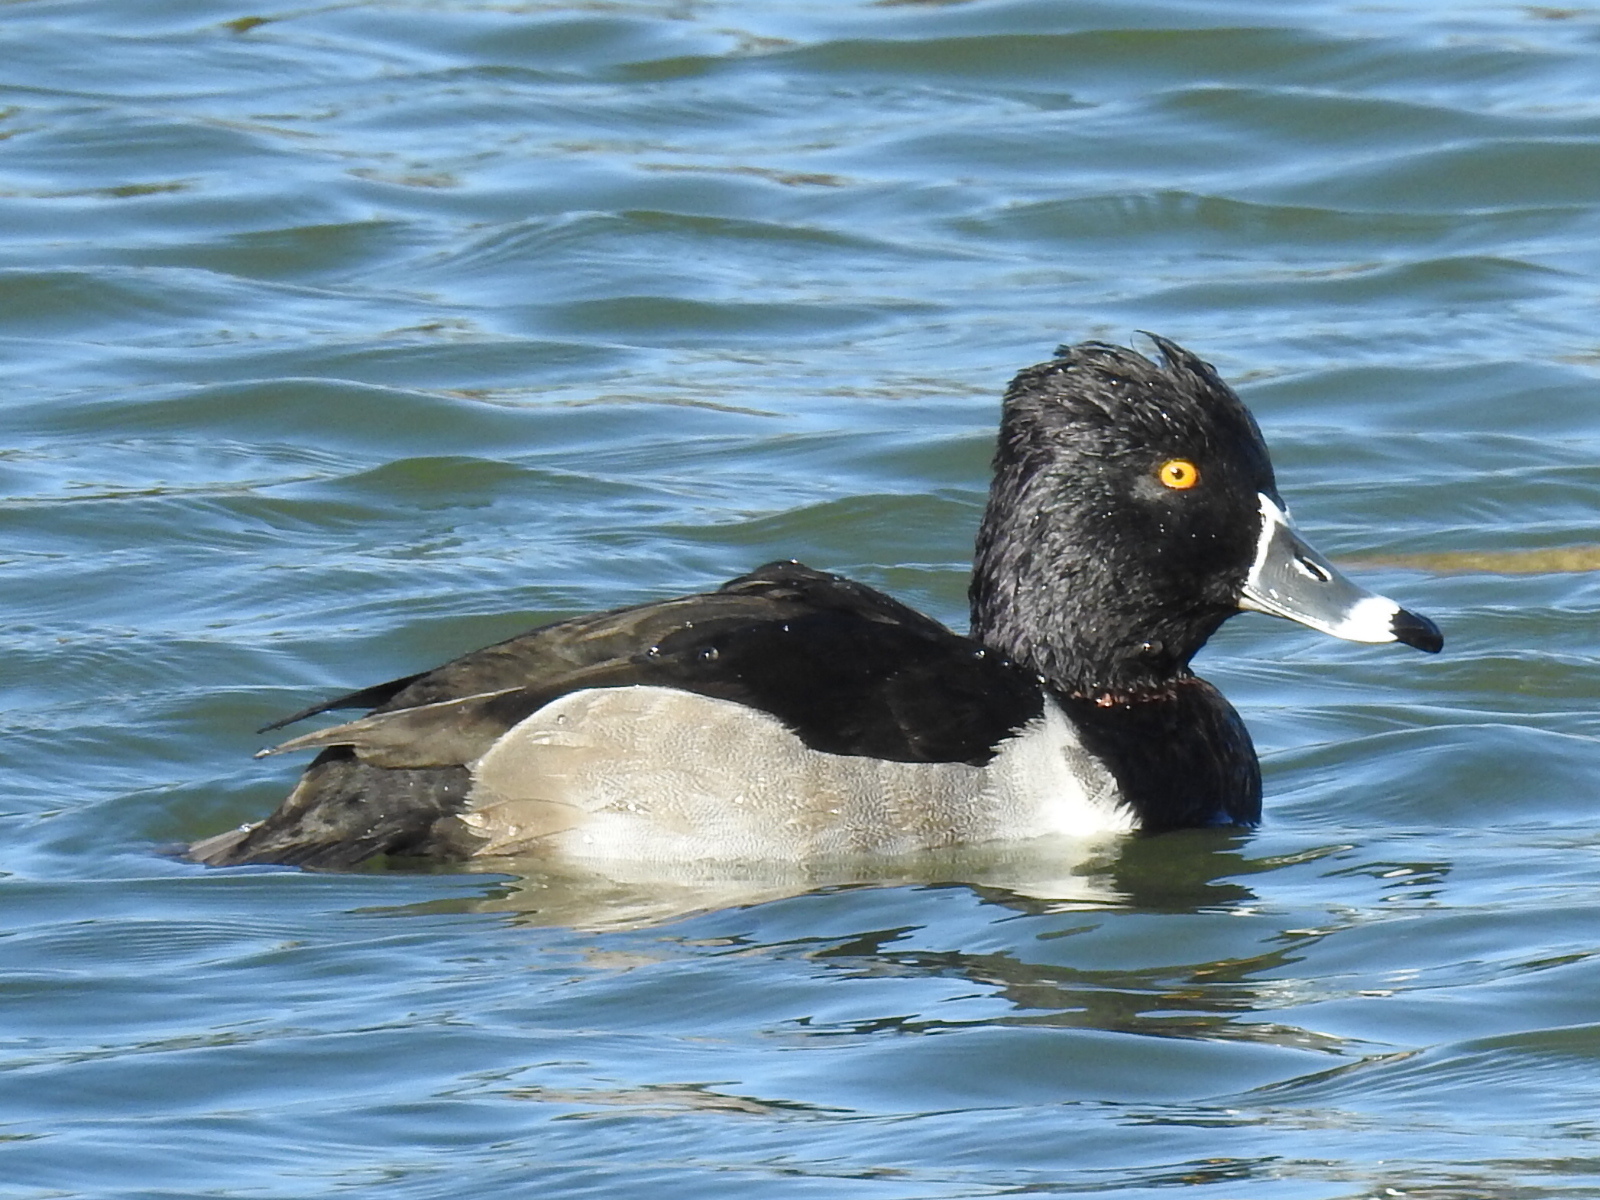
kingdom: Animalia
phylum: Chordata
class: Aves
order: Anseriformes
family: Anatidae
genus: Aythya
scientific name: Aythya collaris
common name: Ring-necked duck
